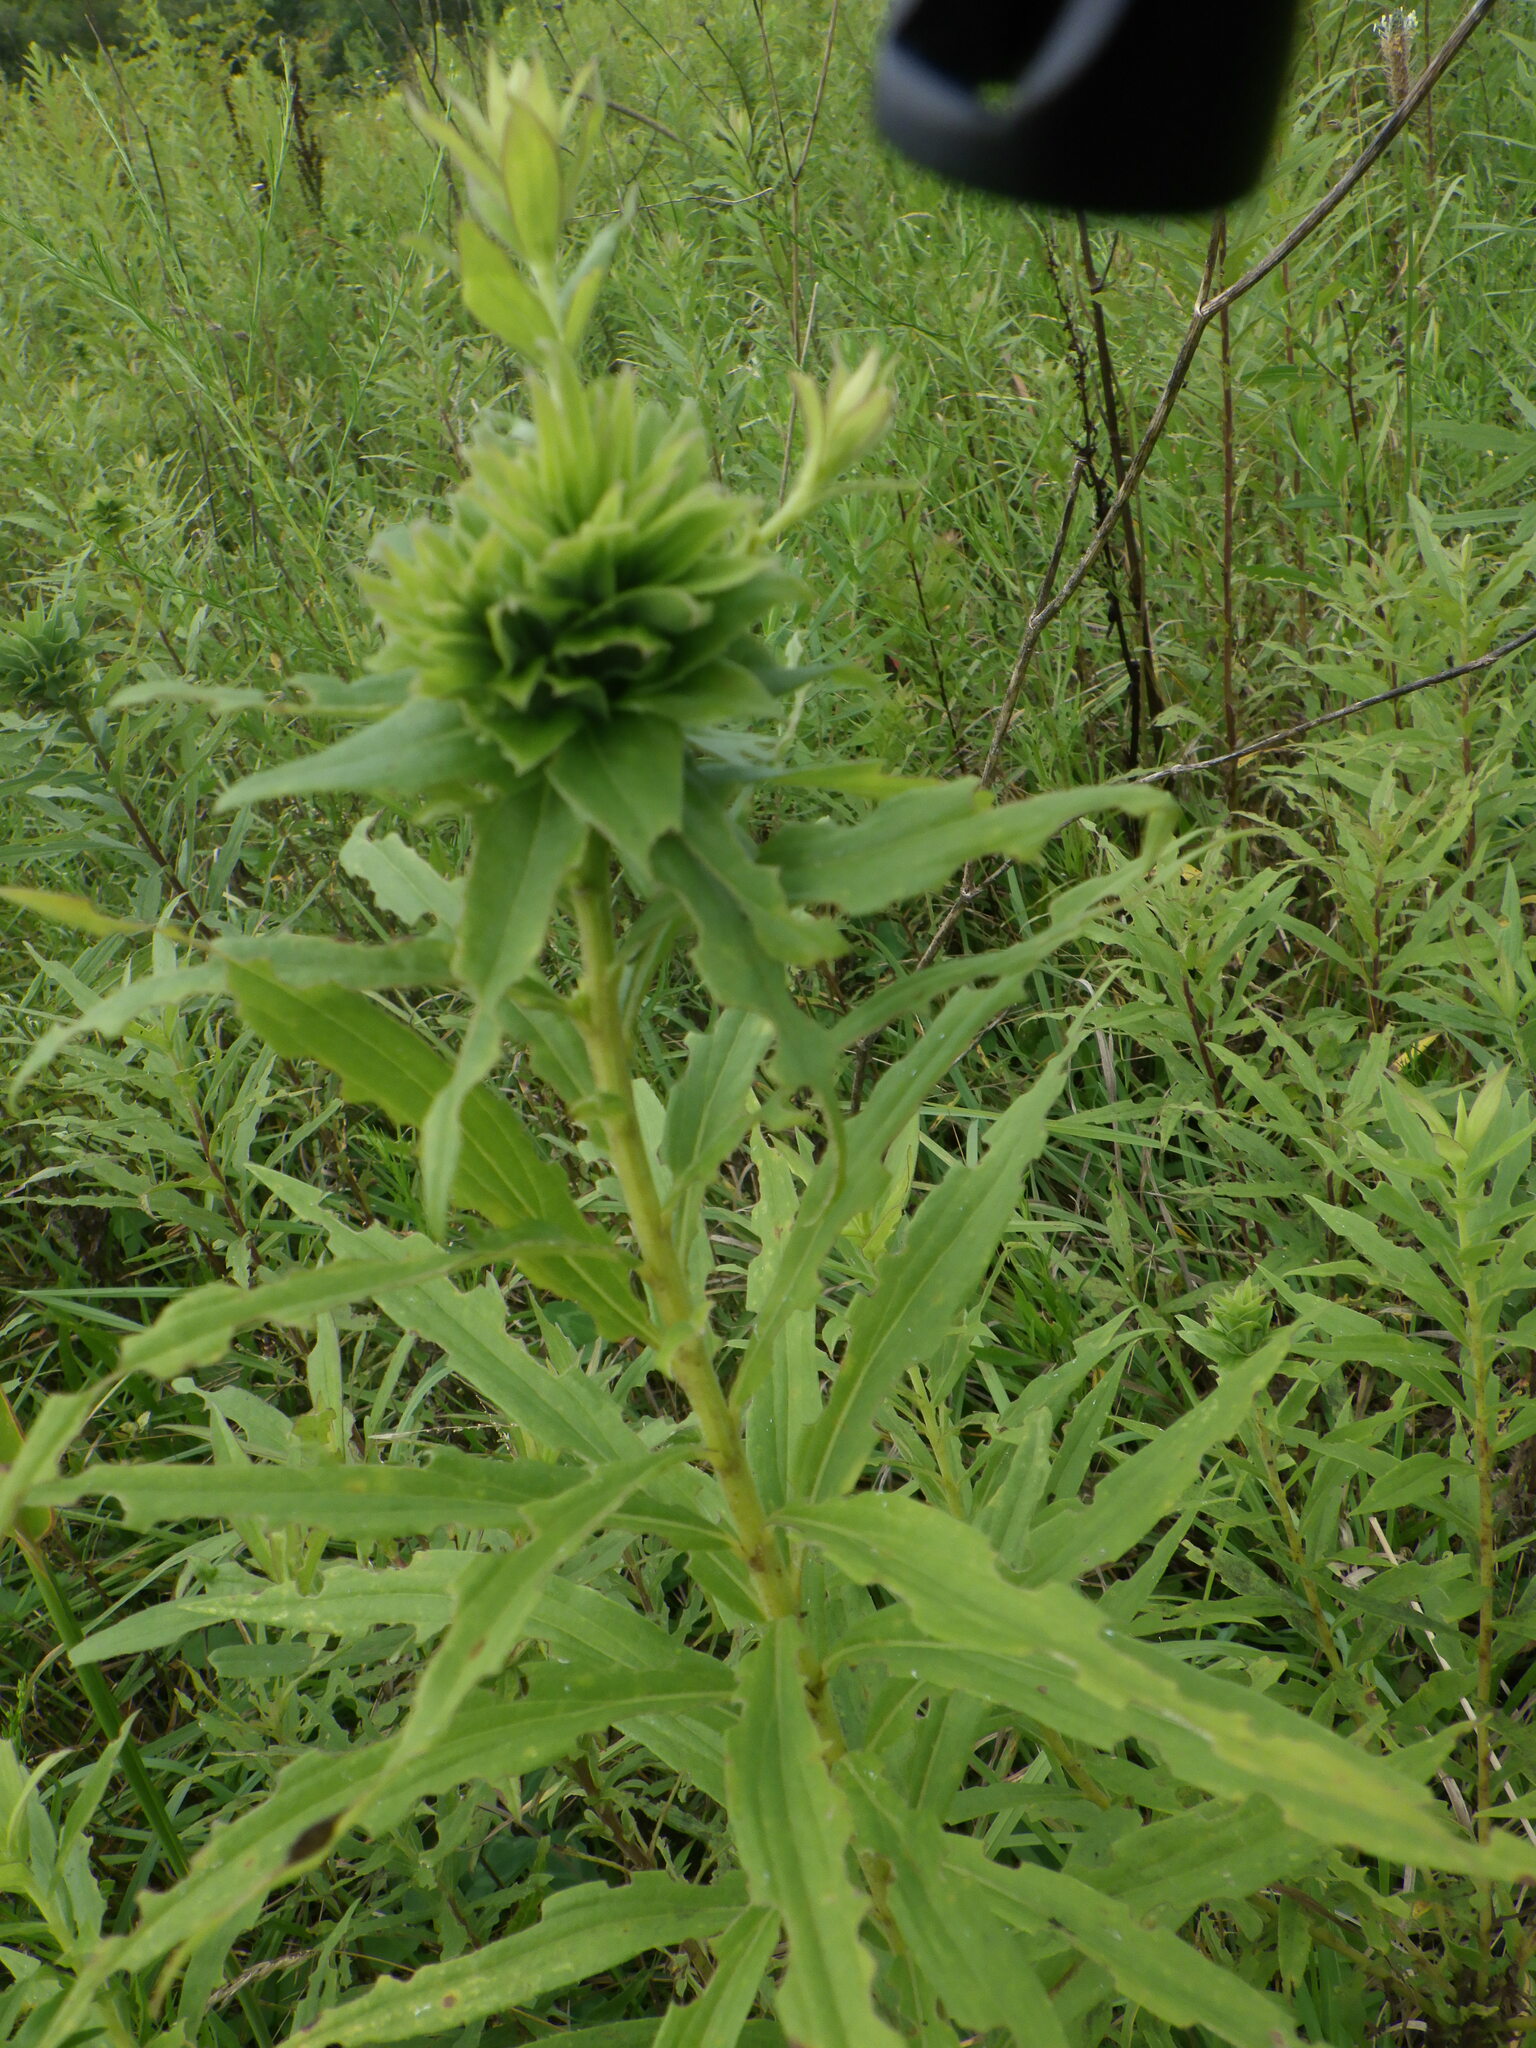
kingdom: Animalia
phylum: Arthropoda
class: Insecta
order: Diptera
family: Cecidomyiidae
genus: Rhopalomyia
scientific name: Rhopalomyia solidaginis
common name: Goldenrod bunch gall midge
